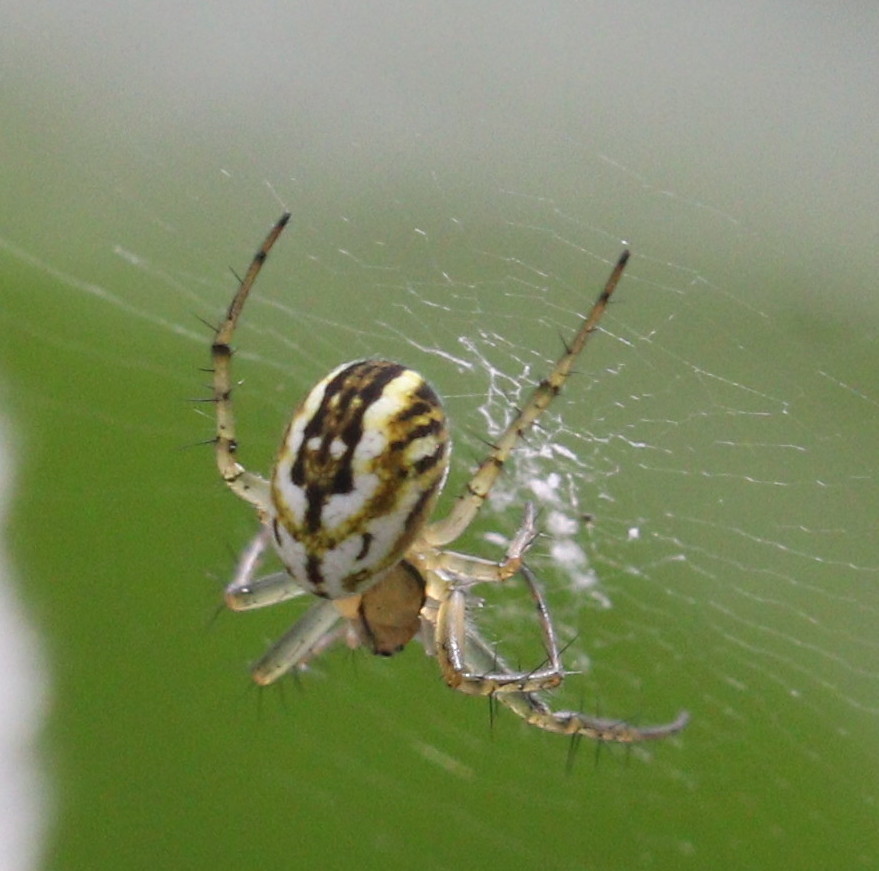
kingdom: Animalia
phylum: Arthropoda
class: Arachnida
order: Araneae
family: Araneidae
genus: Mangora
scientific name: Mangora acalypha
